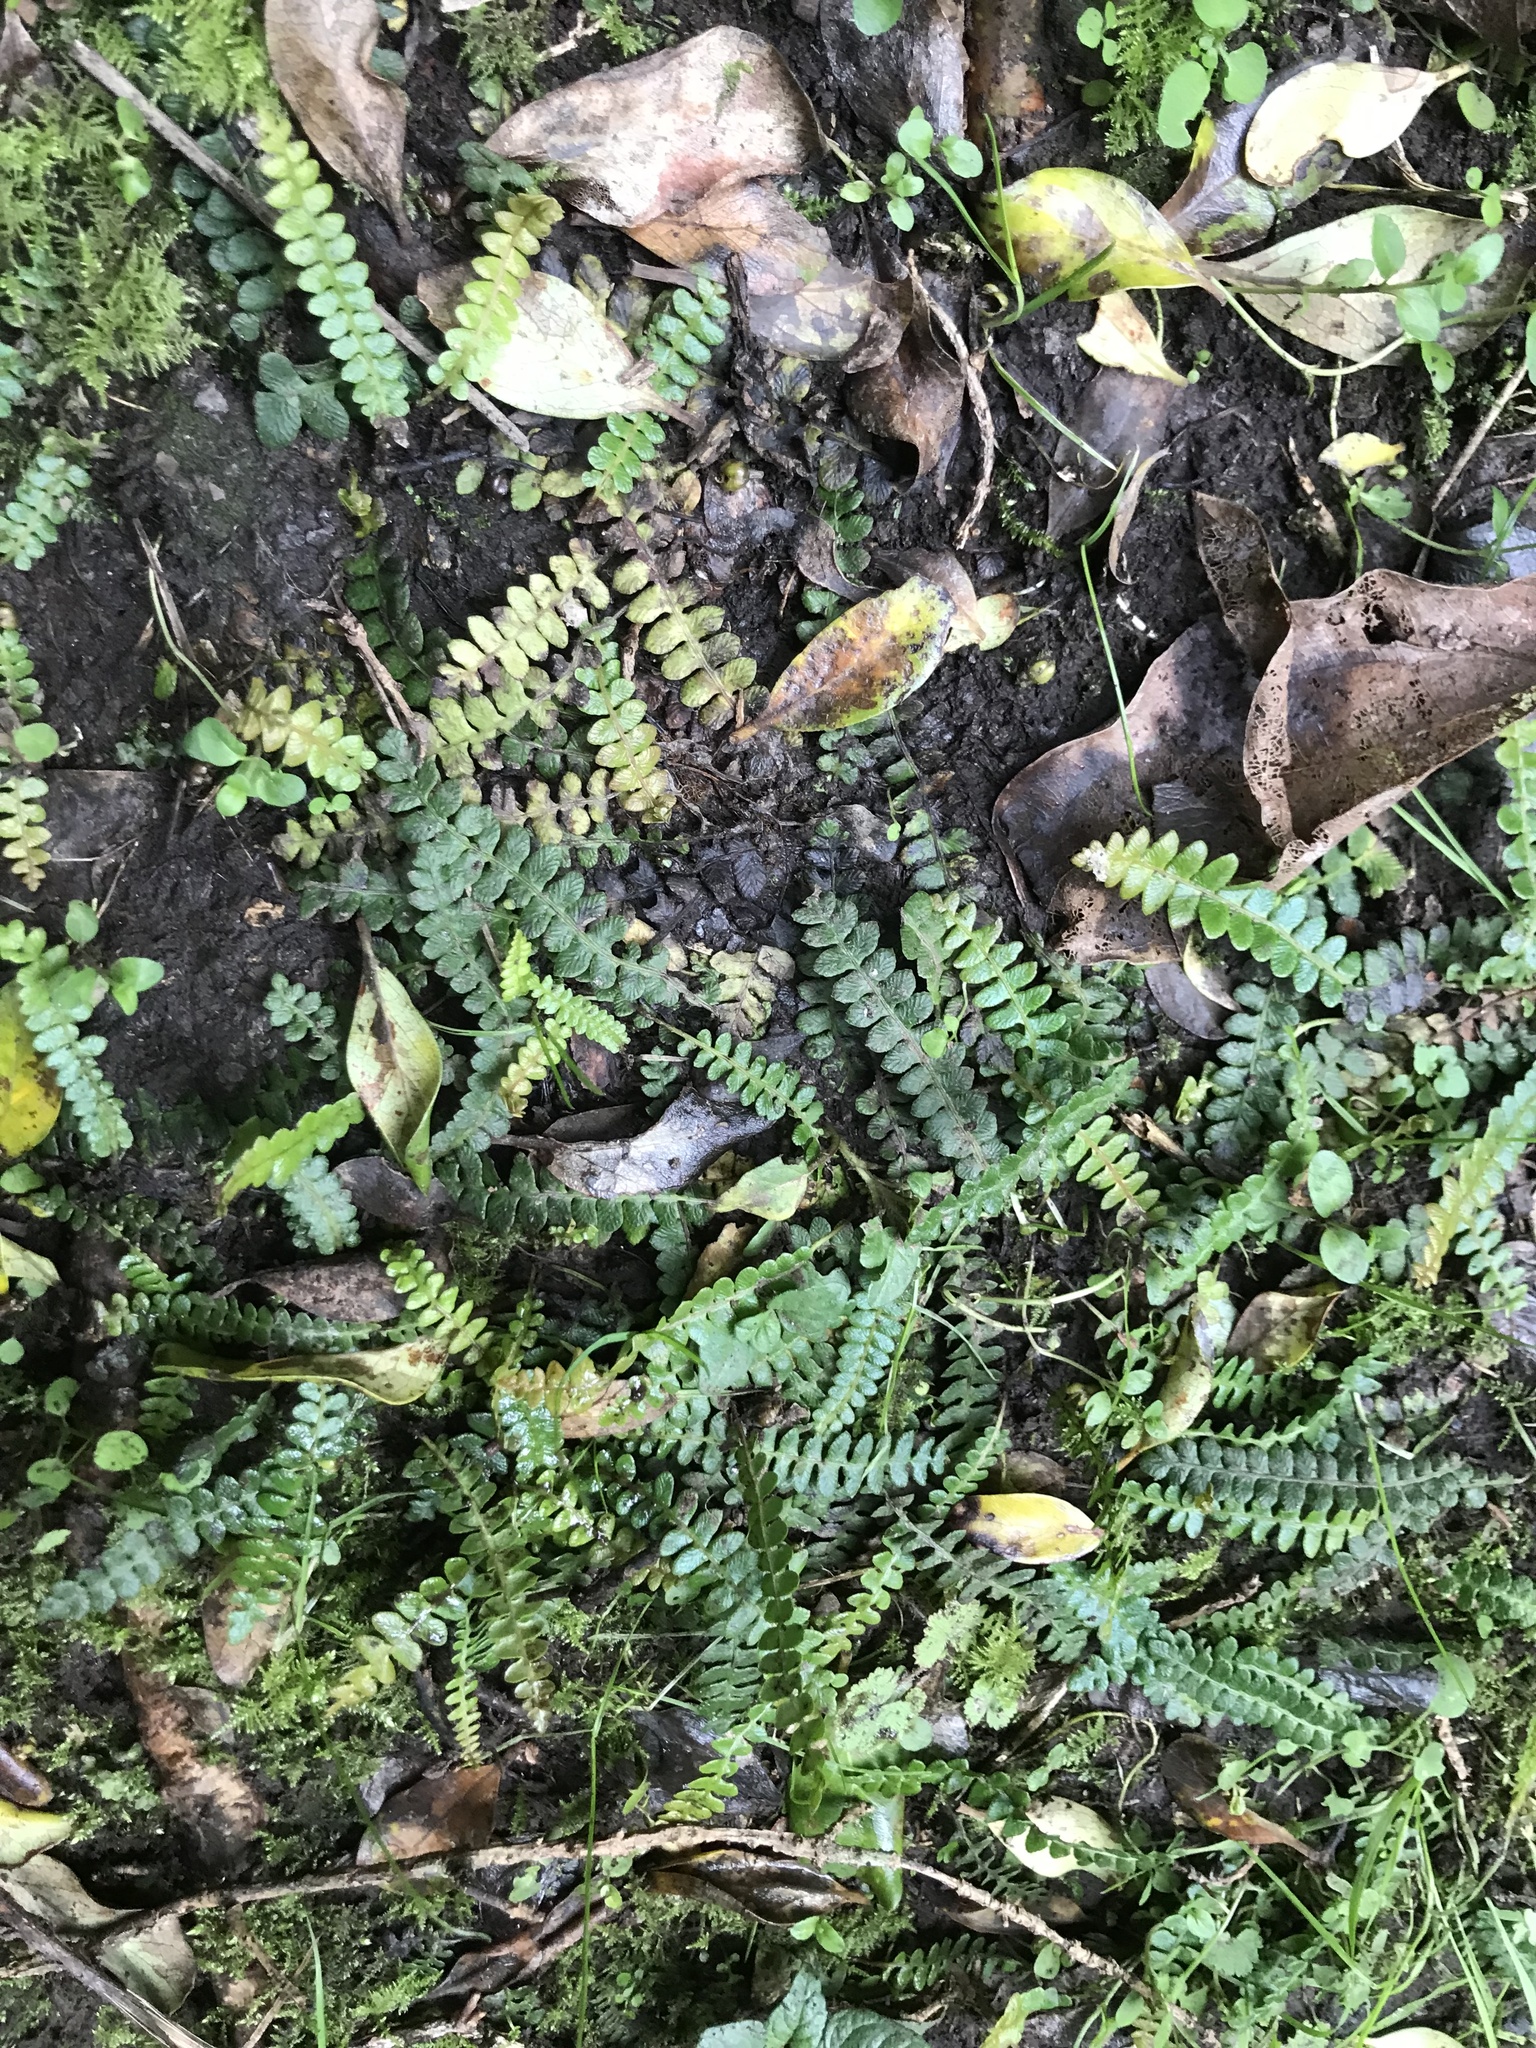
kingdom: Plantae
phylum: Tracheophyta
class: Polypodiopsida
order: Polypodiales
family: Blechnaceae
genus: Austroblechnum
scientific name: Austroblechnum penna-marina
